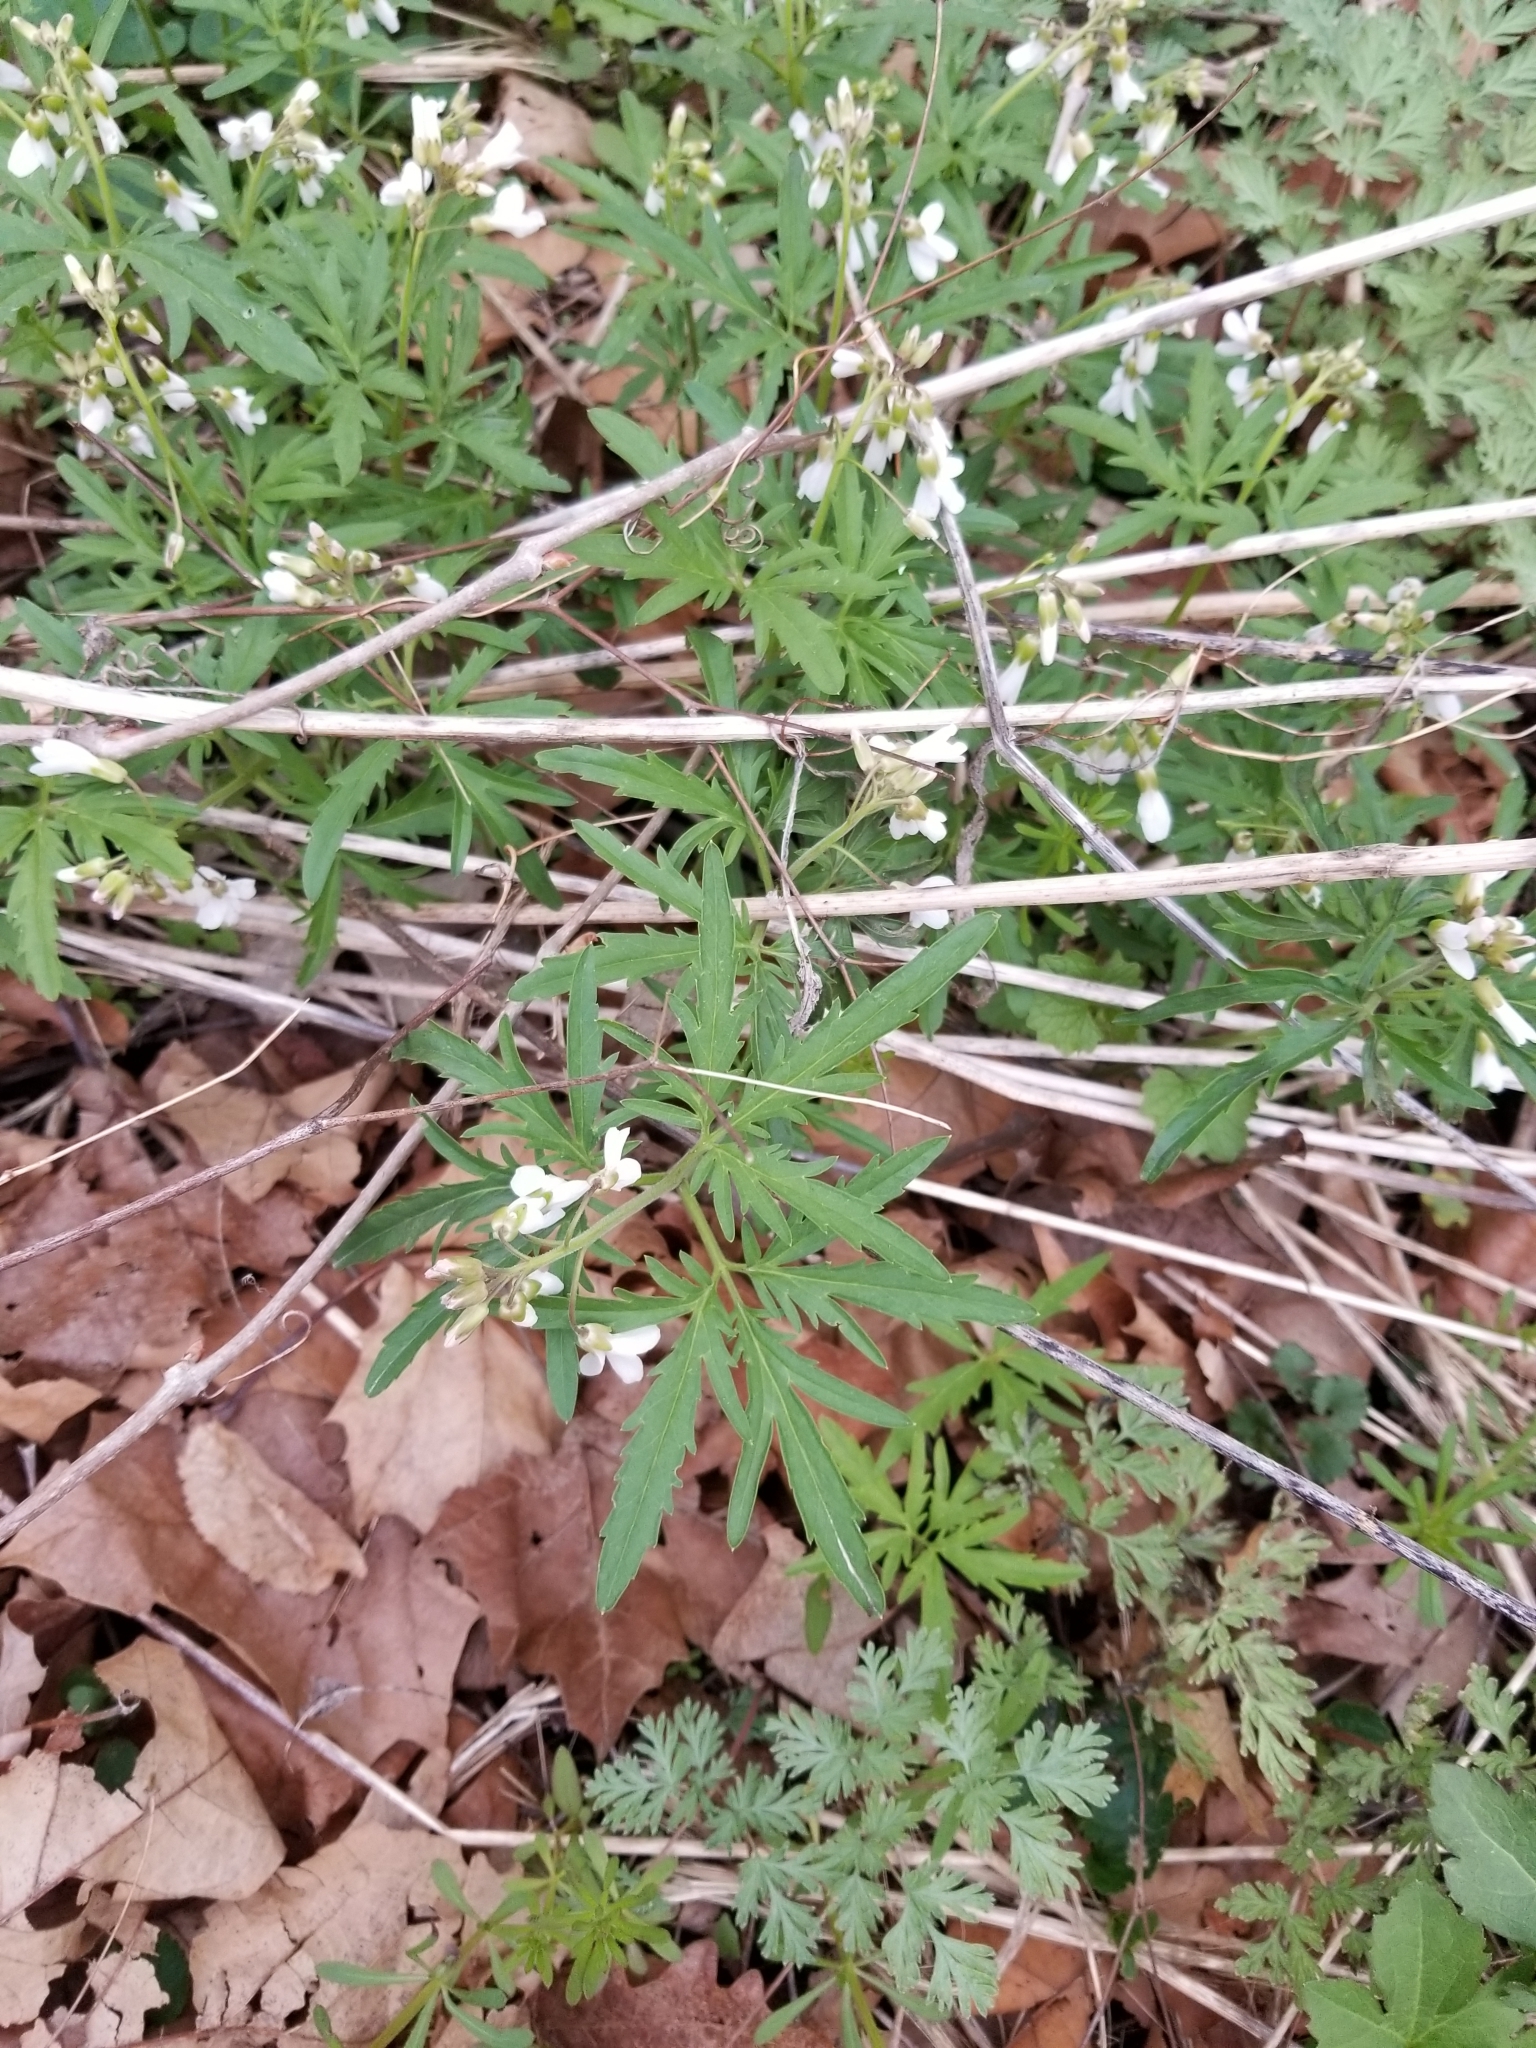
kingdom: Plantae
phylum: Tracheophyta
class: Magnoliopsida
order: Brassicales
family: Brassicaceae
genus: Cardamine
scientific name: Cardamine concatenata
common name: Cut-leaf toothcup
